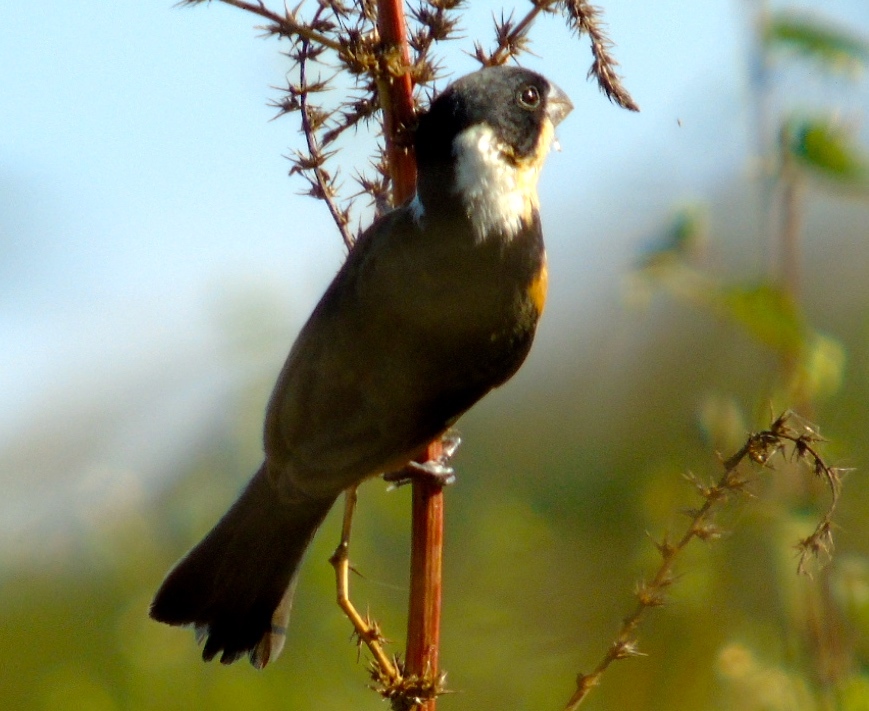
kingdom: Animalia
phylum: Chordata
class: Aves
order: Passeriformes
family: Thraupidae
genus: Sporophila
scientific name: Sporophila torqueola
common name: White-collared seedeater
